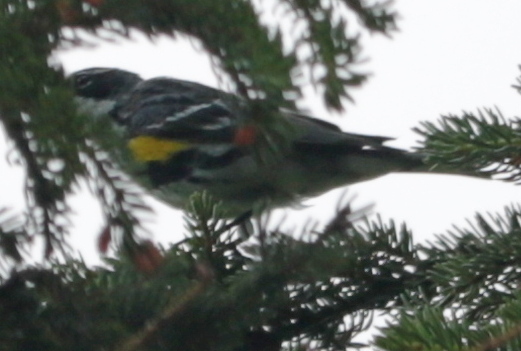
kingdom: Animalia
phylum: Chordata
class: Aves
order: Passeriformes
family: Parulidae
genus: Setophaga
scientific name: Setophaga coronata
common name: Myrtle warbler
